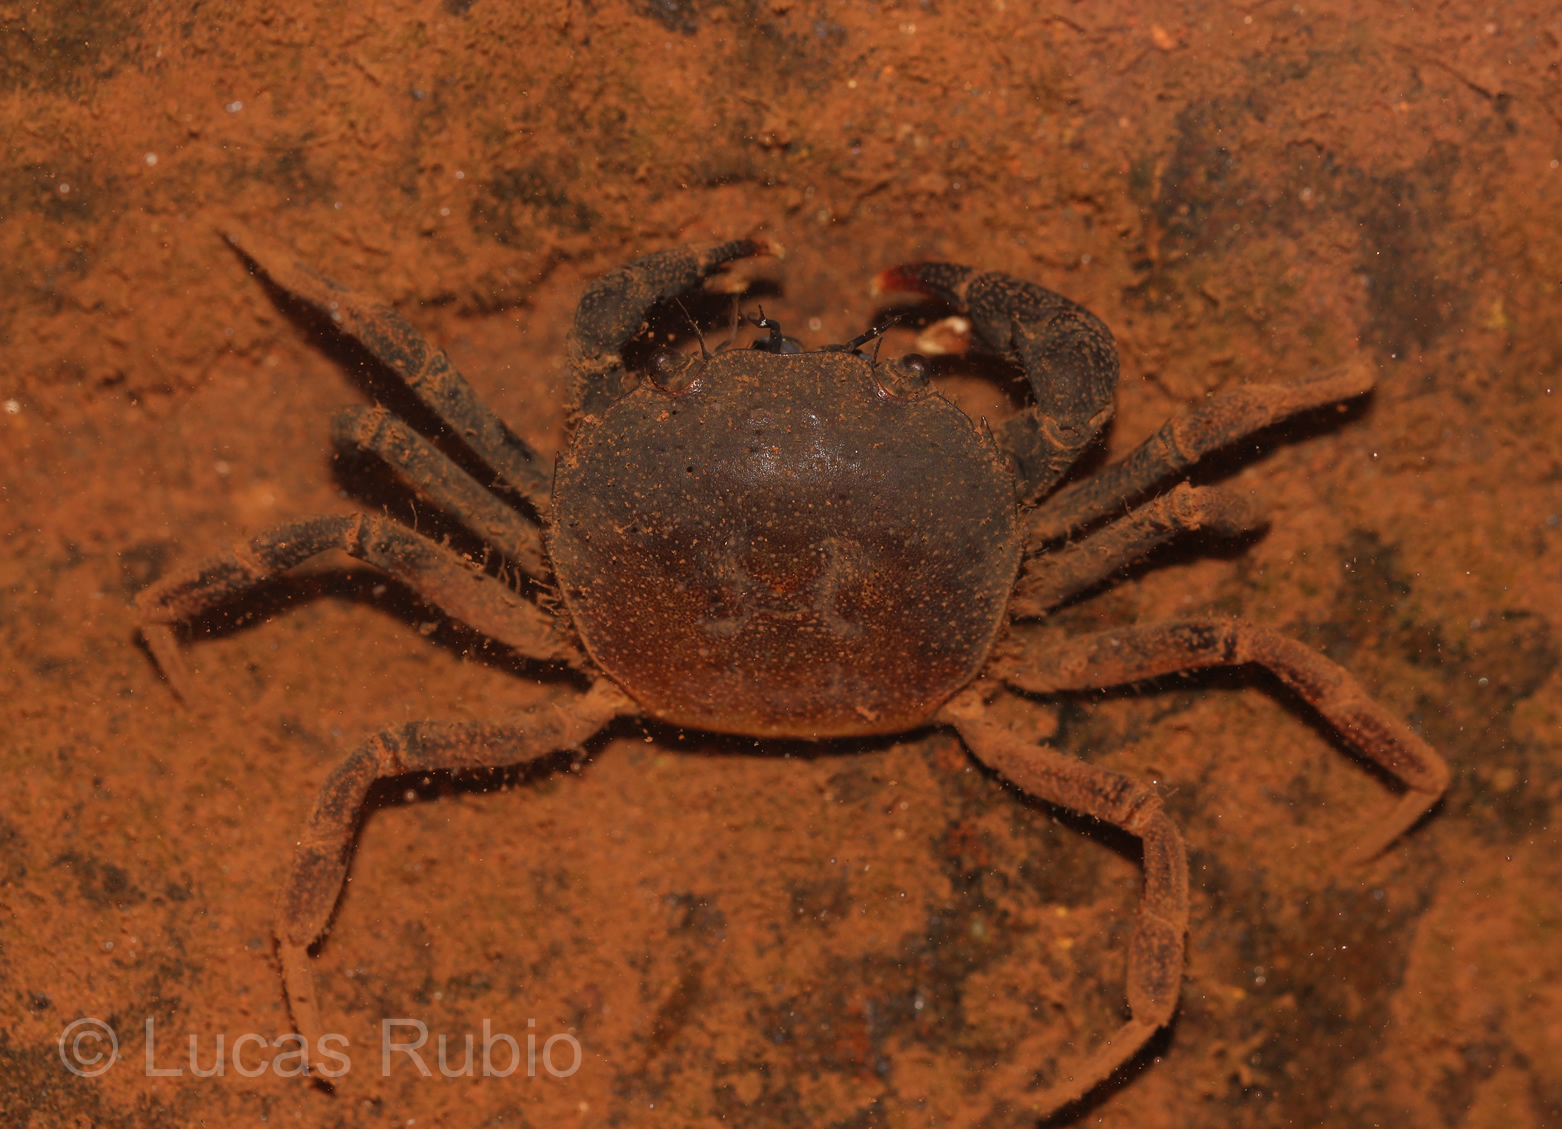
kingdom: Animalia
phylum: Arthropoda
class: Malacostraca
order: Decapoda
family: Trichodactylidae
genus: Trichodactylus
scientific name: Trichodactylus kensleyi
